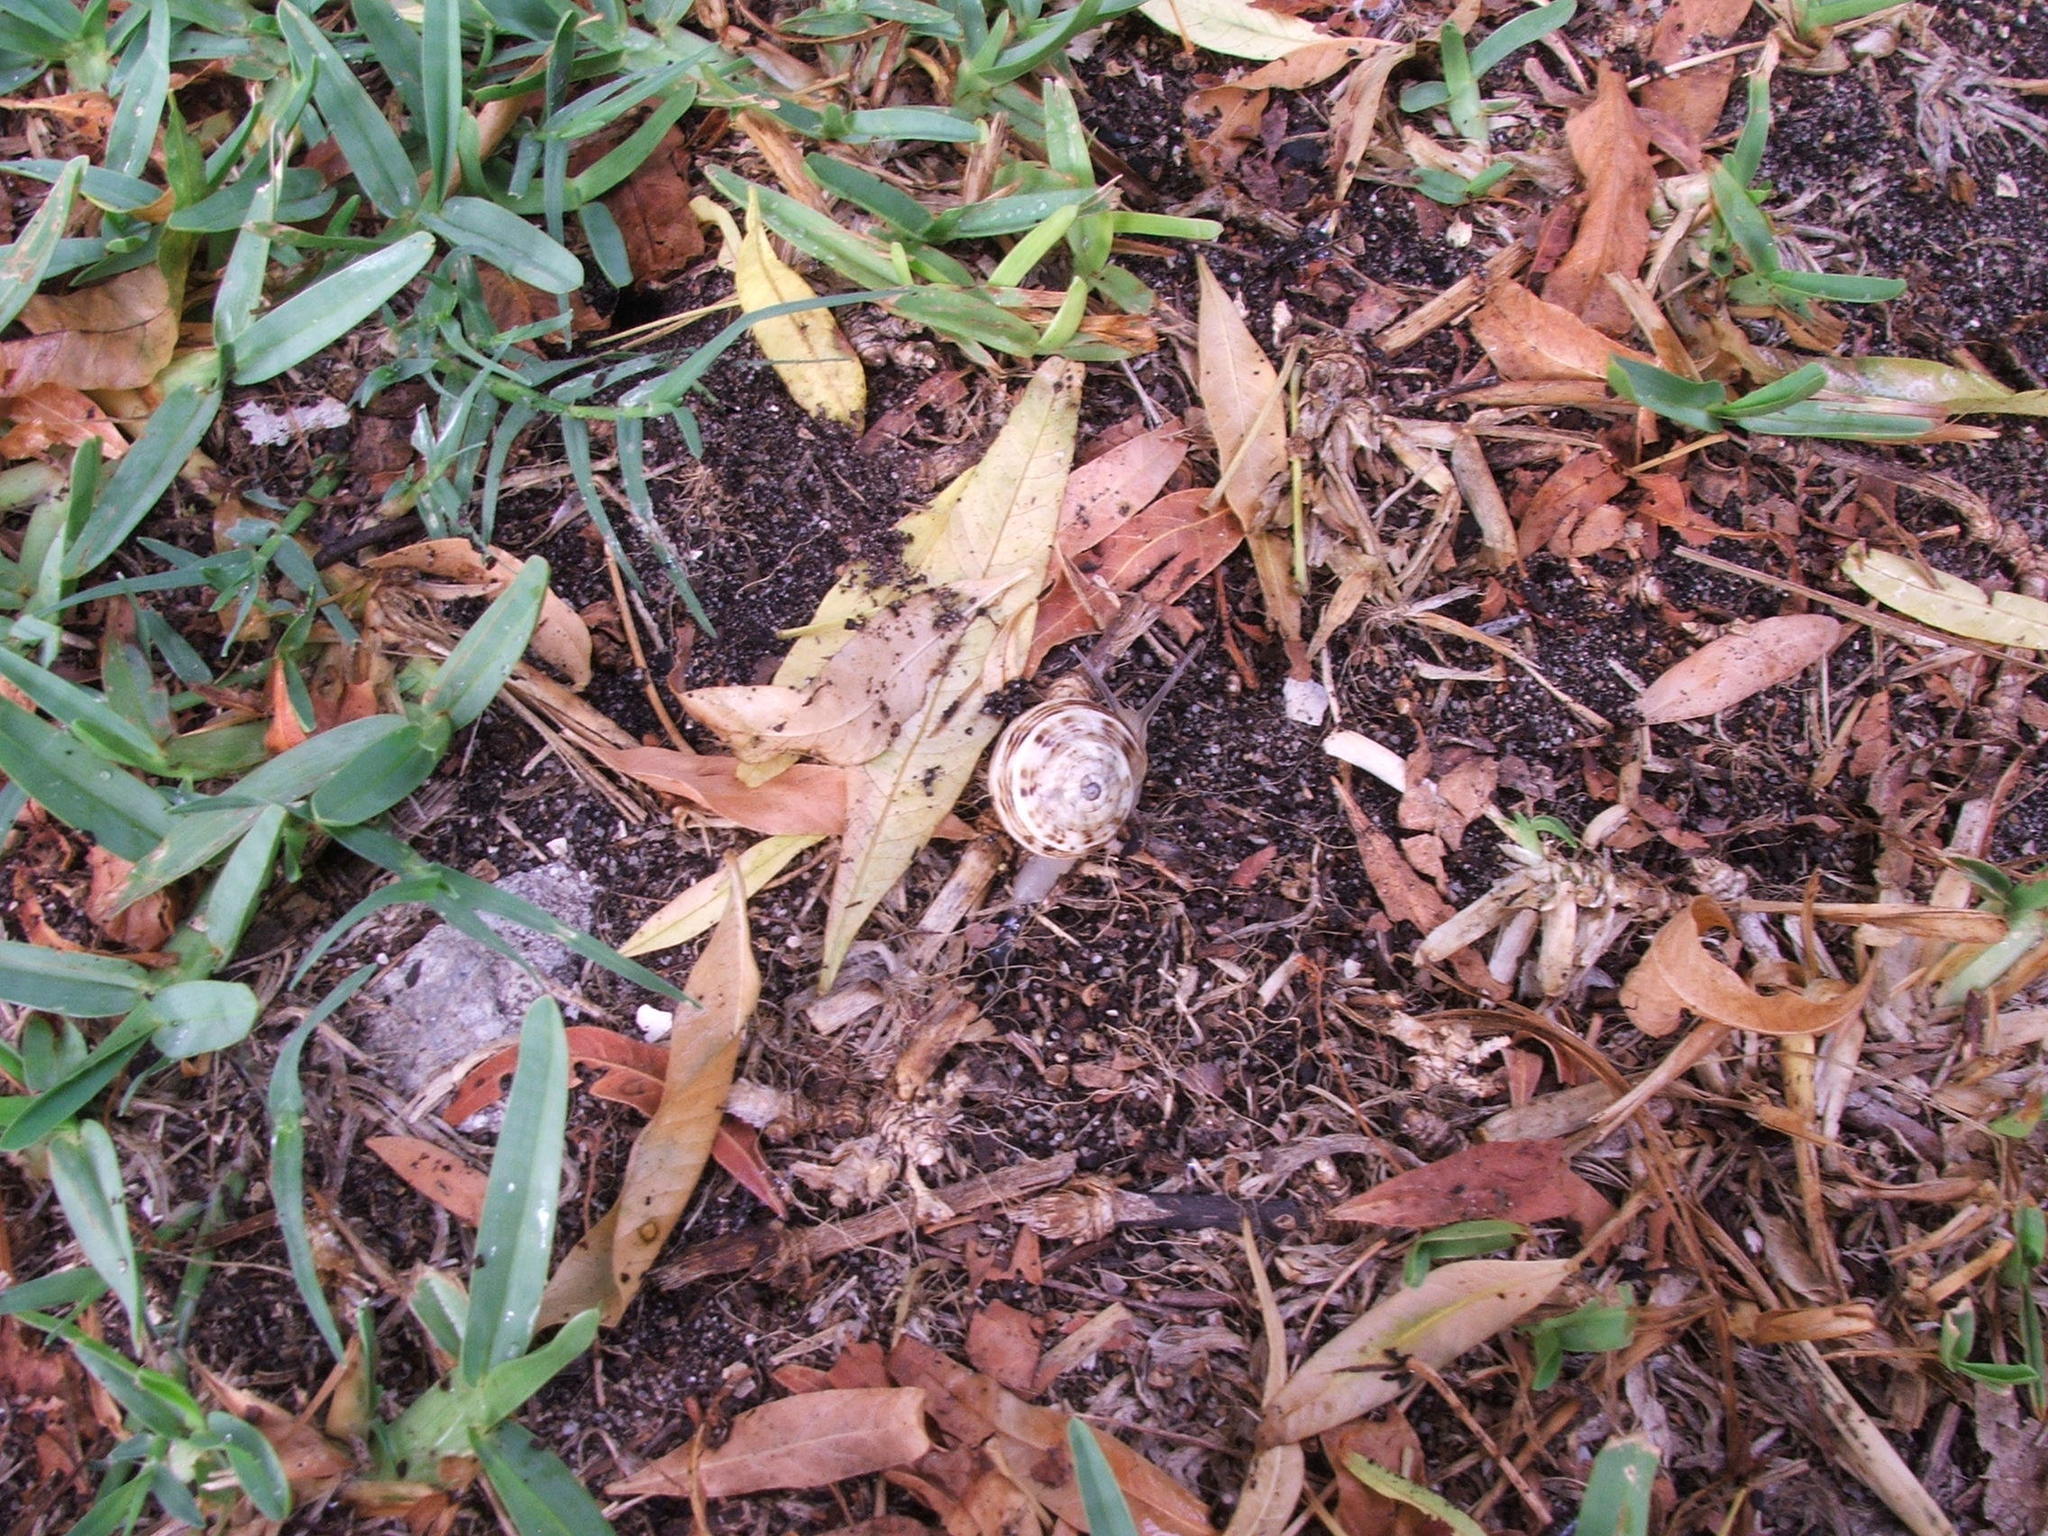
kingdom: Animalia
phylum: Mollusca
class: Gastropoda
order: Stylommatophora
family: Helicidae
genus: Theba
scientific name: Theba pisana
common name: White snail
